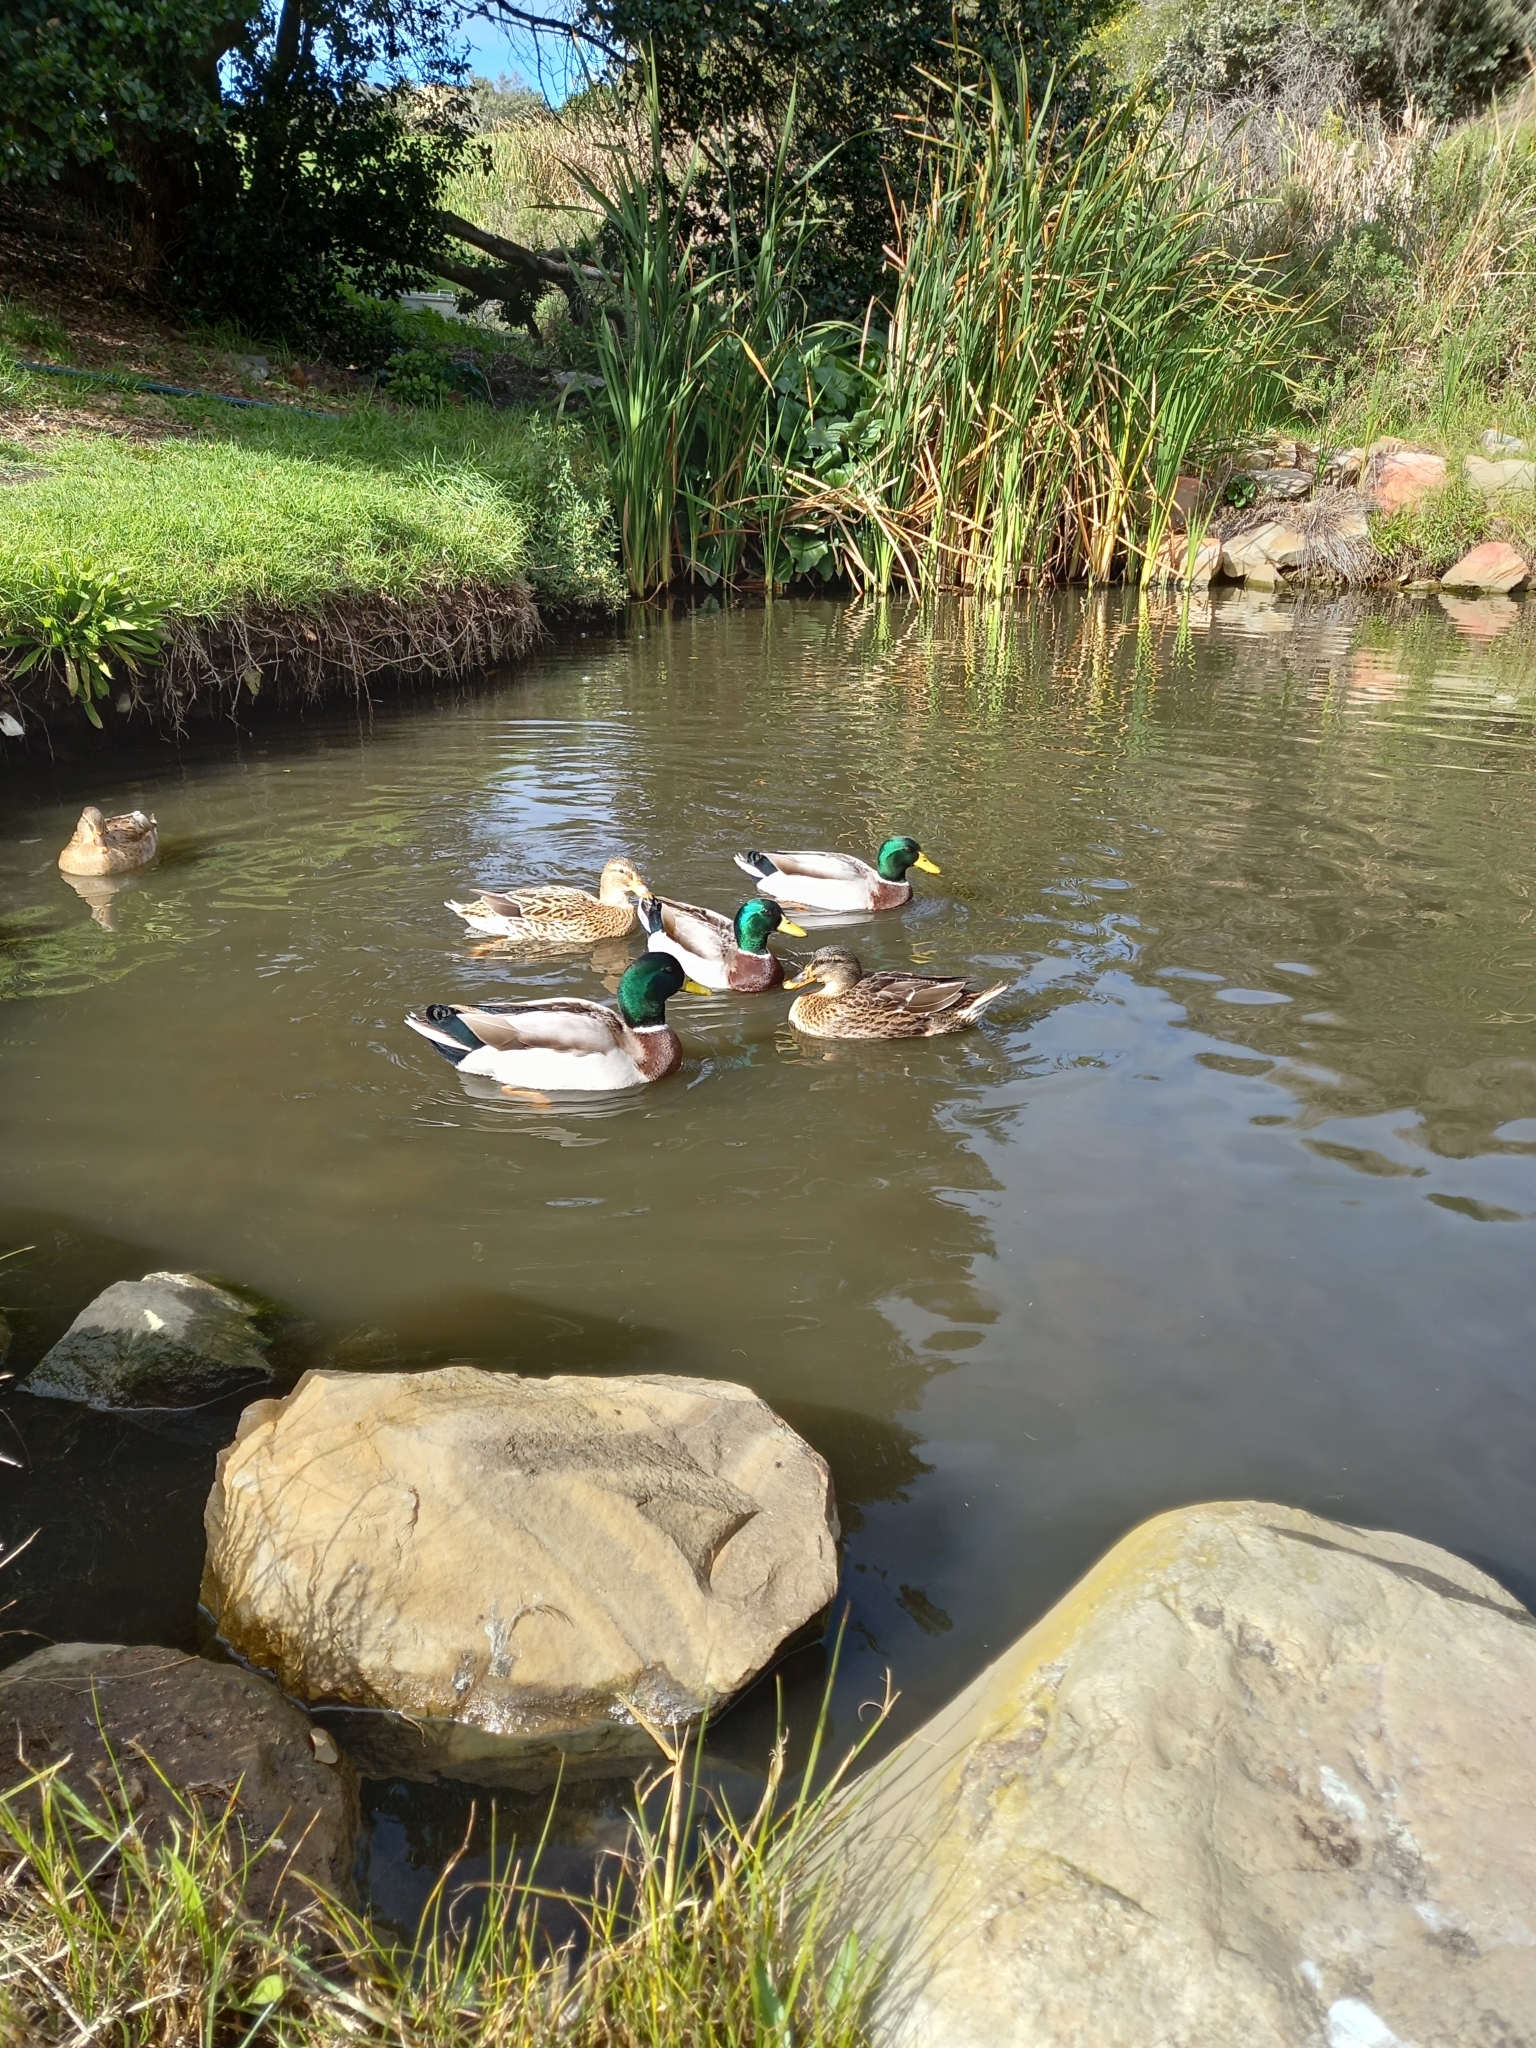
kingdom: Animalia
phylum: Chordata
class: Aves
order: Anseriformes
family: Anatidae
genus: Anas
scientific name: Anas platyrhynchos
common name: Mallard
